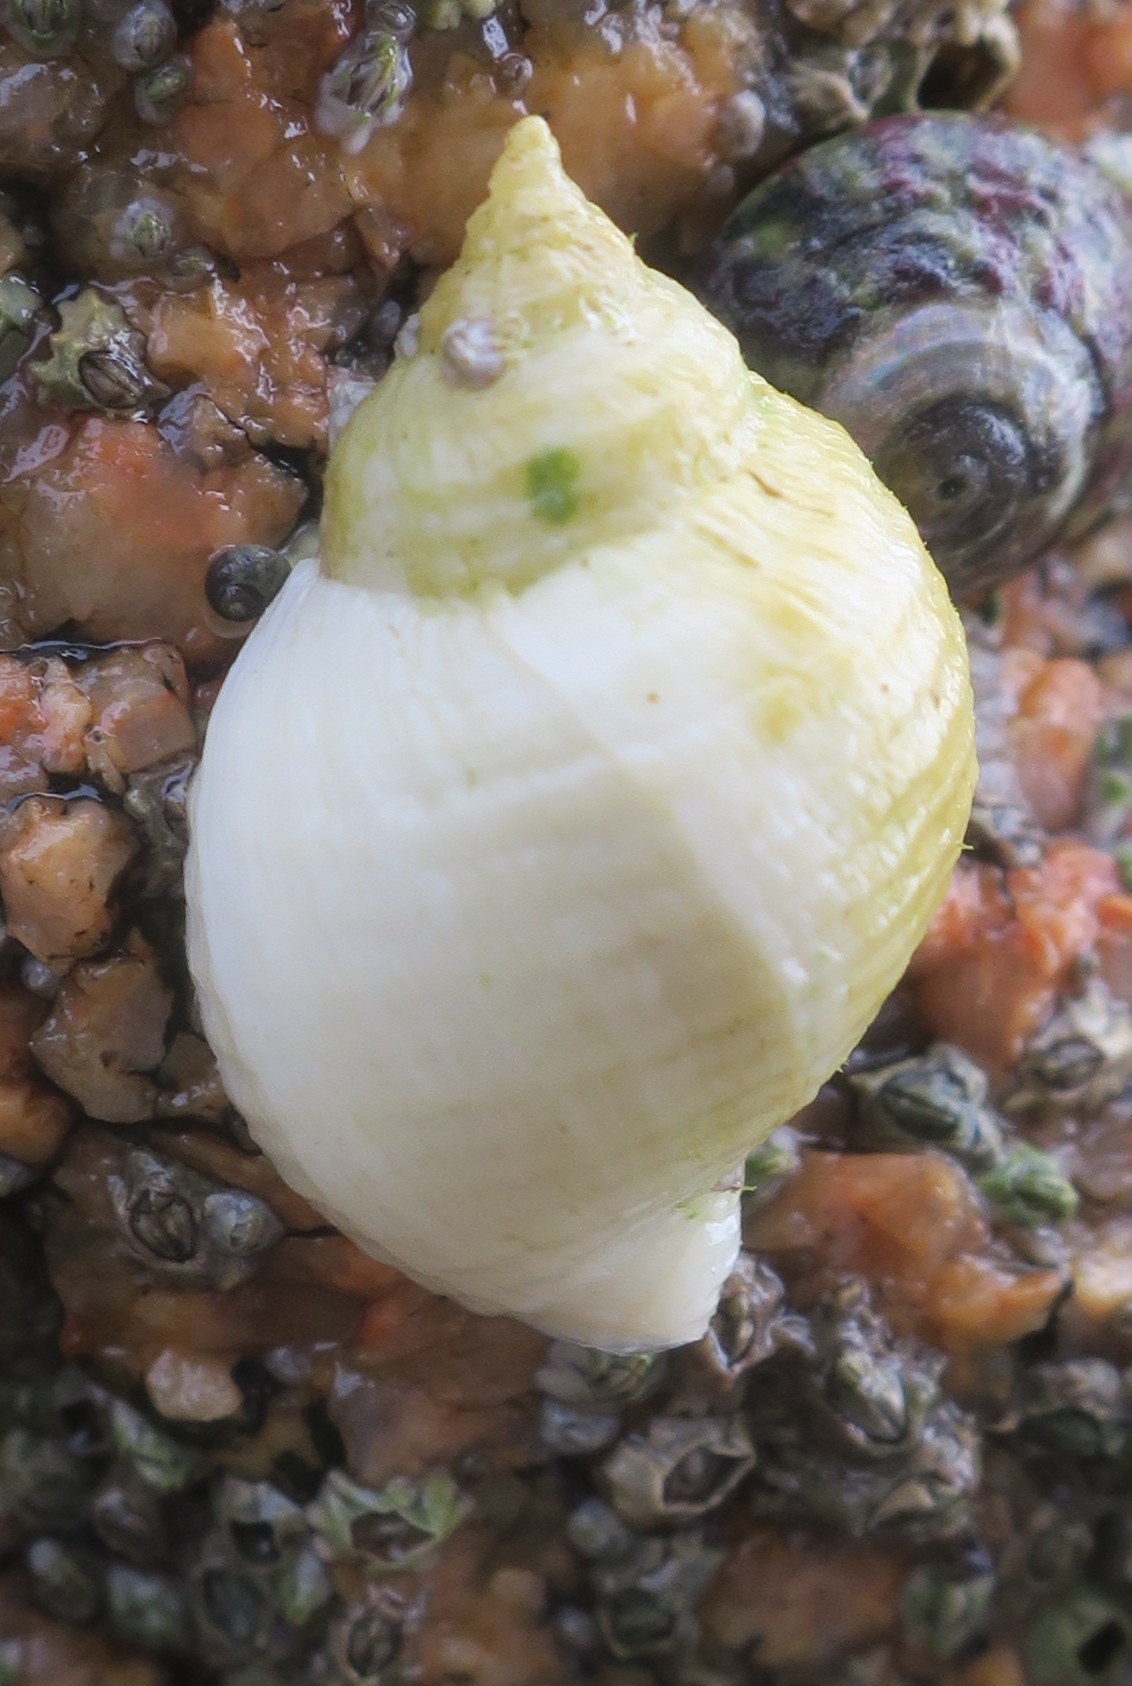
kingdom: Animalia
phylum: Mollusca
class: Gastropoda
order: Neogastropoda
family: Muricidae
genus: Nucella
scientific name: Nucella lapillus
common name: Dog whelk
